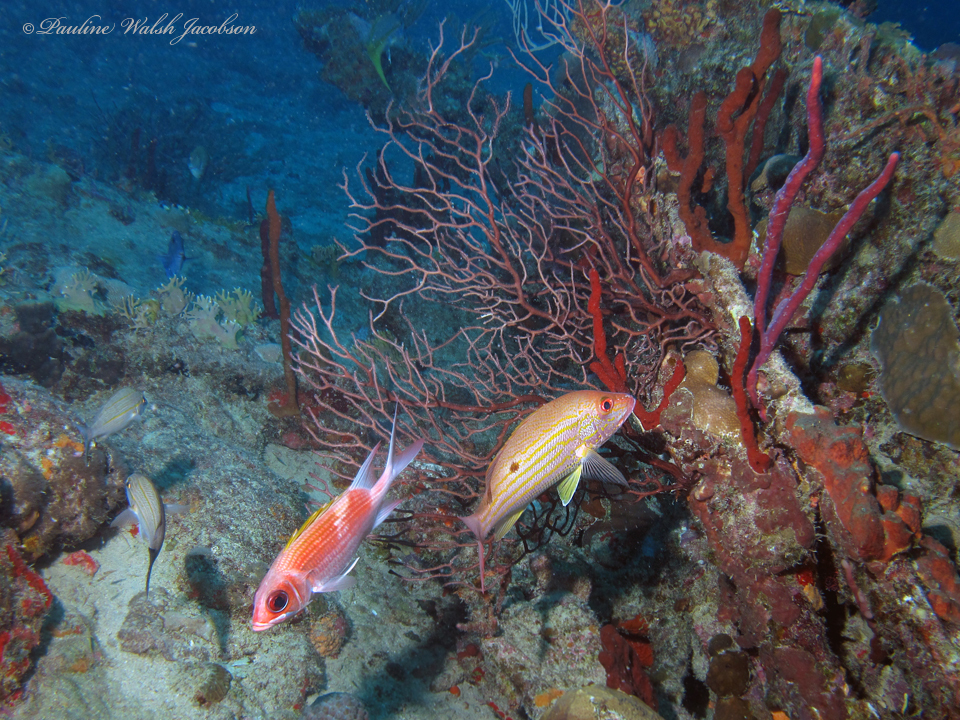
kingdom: Animalia
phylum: Chordata
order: Perciformes
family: Lutjanidae
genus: Lutjanus
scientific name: Lutjanus synagris
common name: Lane snapper
